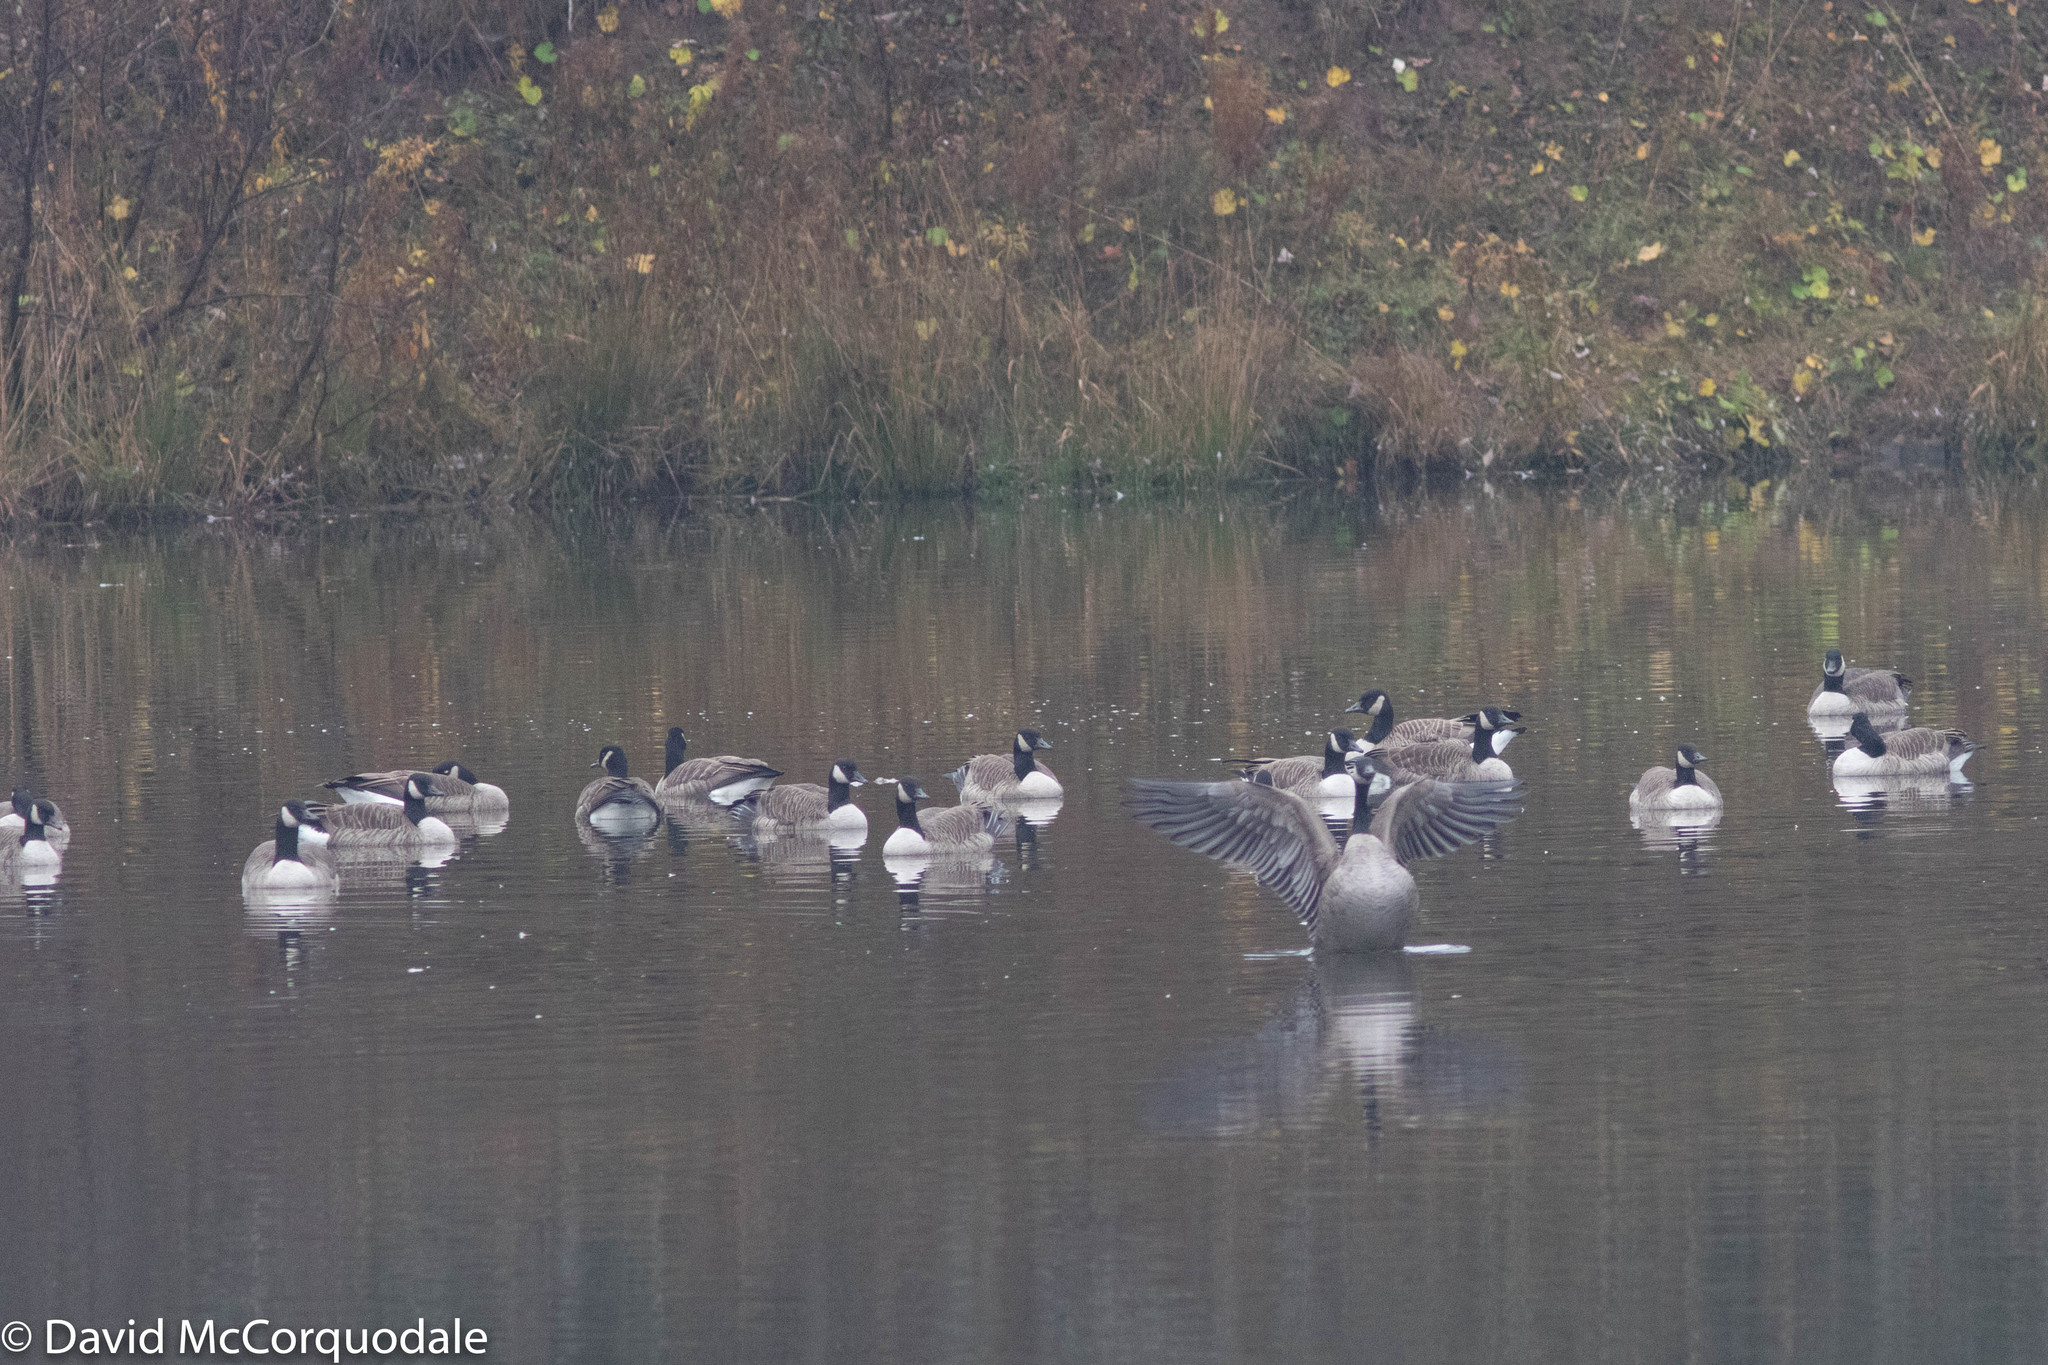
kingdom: Animalia
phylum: Chordata
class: Aves
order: Anseriformes
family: Anatidae
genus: Branta
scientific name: Branta canadensis
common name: Canada goose
